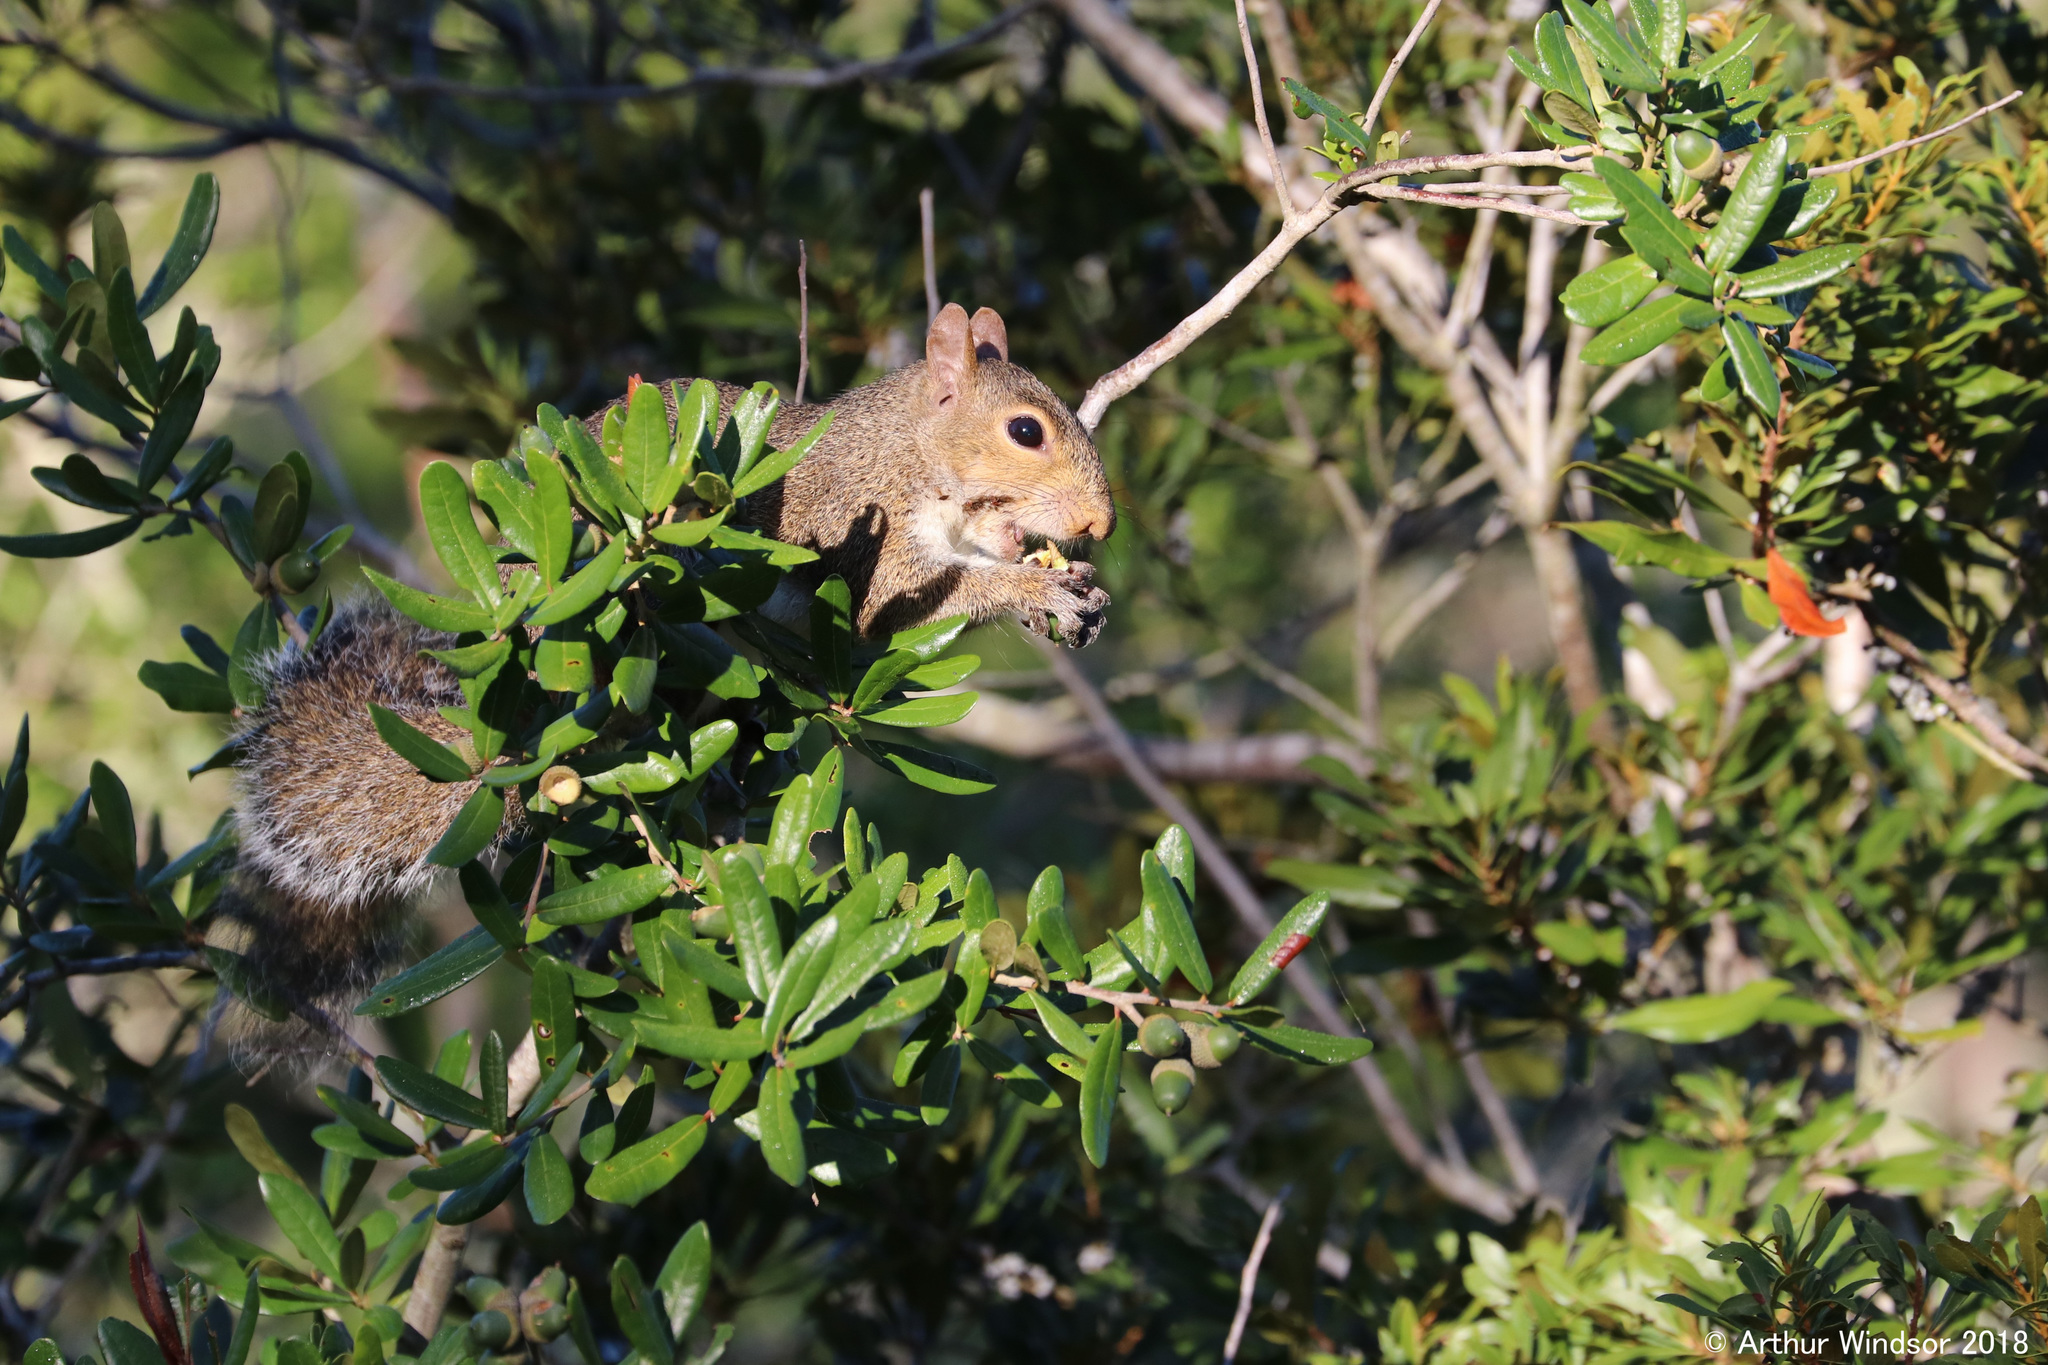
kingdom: Animalia
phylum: Chordata
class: Mammalia
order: Rodentia
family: Sciuridae
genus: Sciurus
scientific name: Sciurus carolinensis
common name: Eastern gray squirrel
